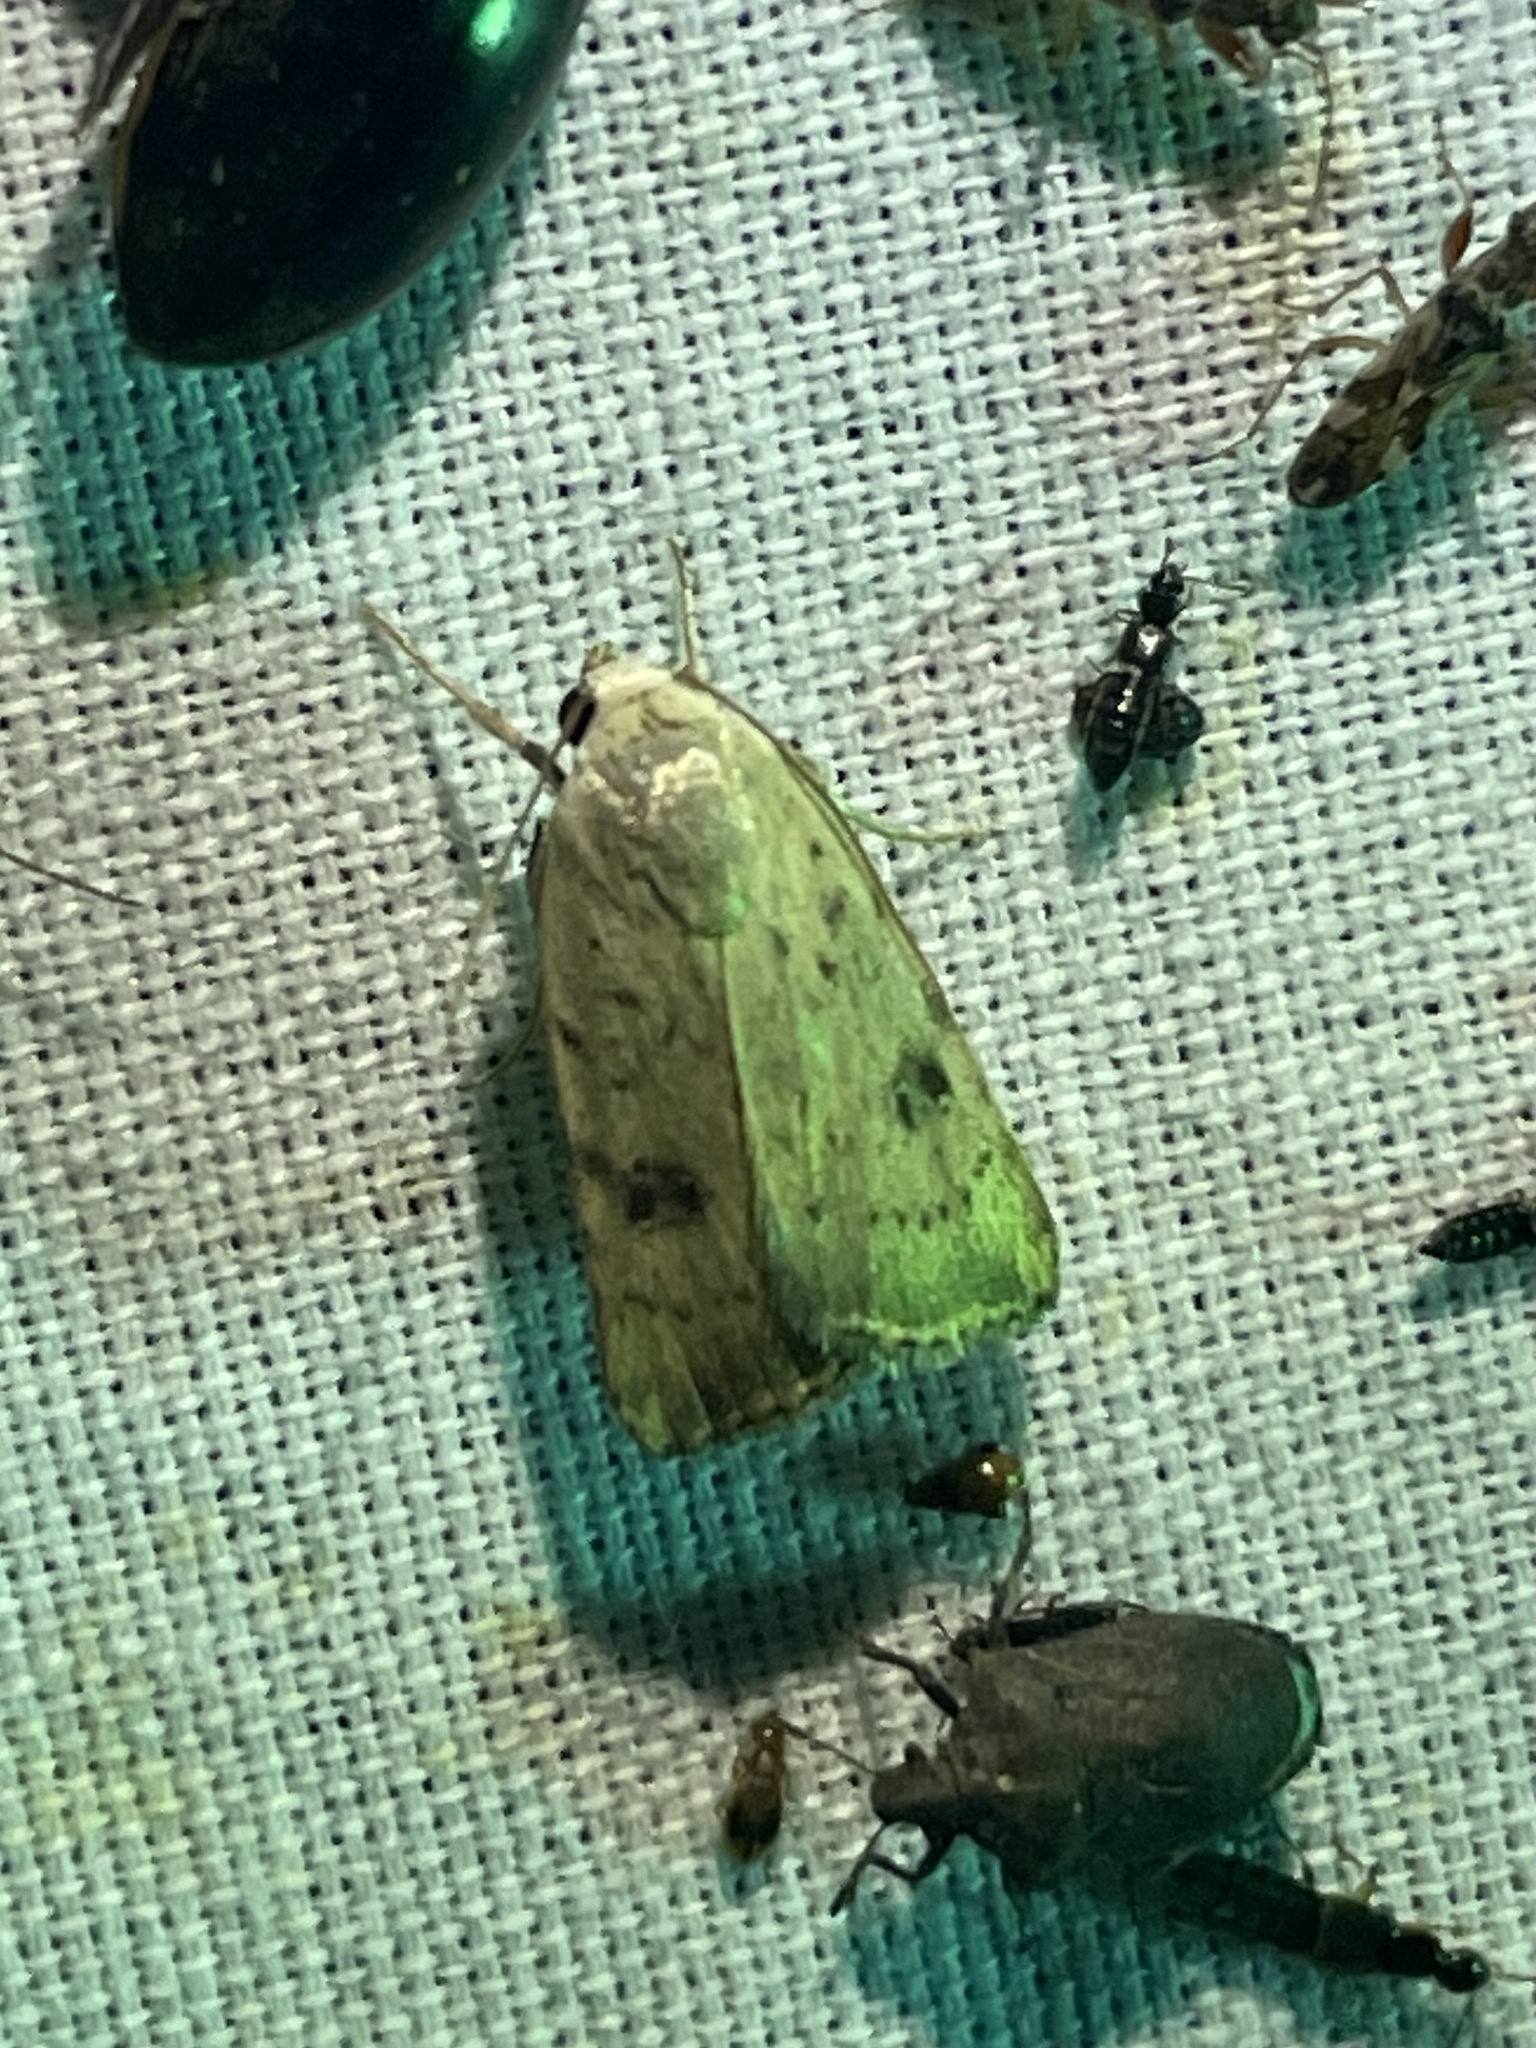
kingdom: Animalia
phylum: Arthropoda
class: Insecta
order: Lepidoptera
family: Noctuidae
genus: Micrathetis
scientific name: Micrathetis triplex
